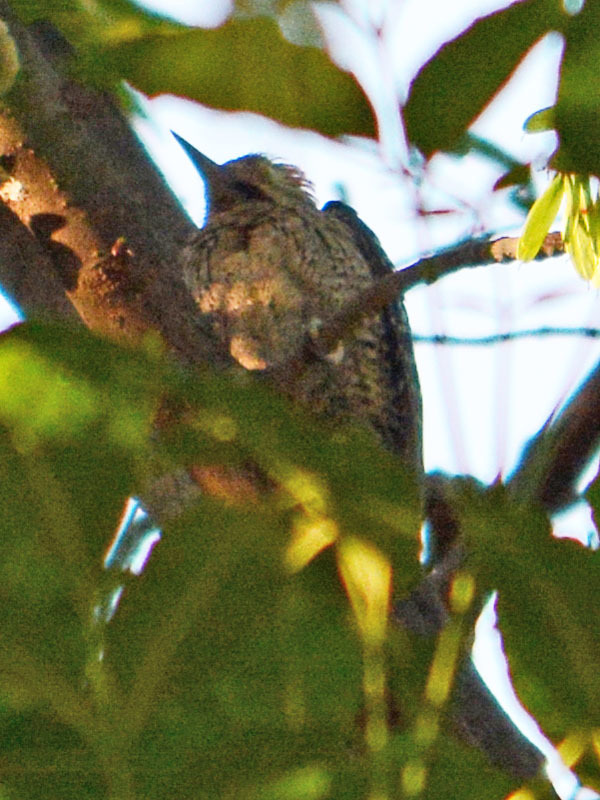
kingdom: Animalia
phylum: Chordata
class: Aves
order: Piciformes
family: Picidae
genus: Dryobates
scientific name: Dryobates scalaris
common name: Ladder-backed woodpecker
